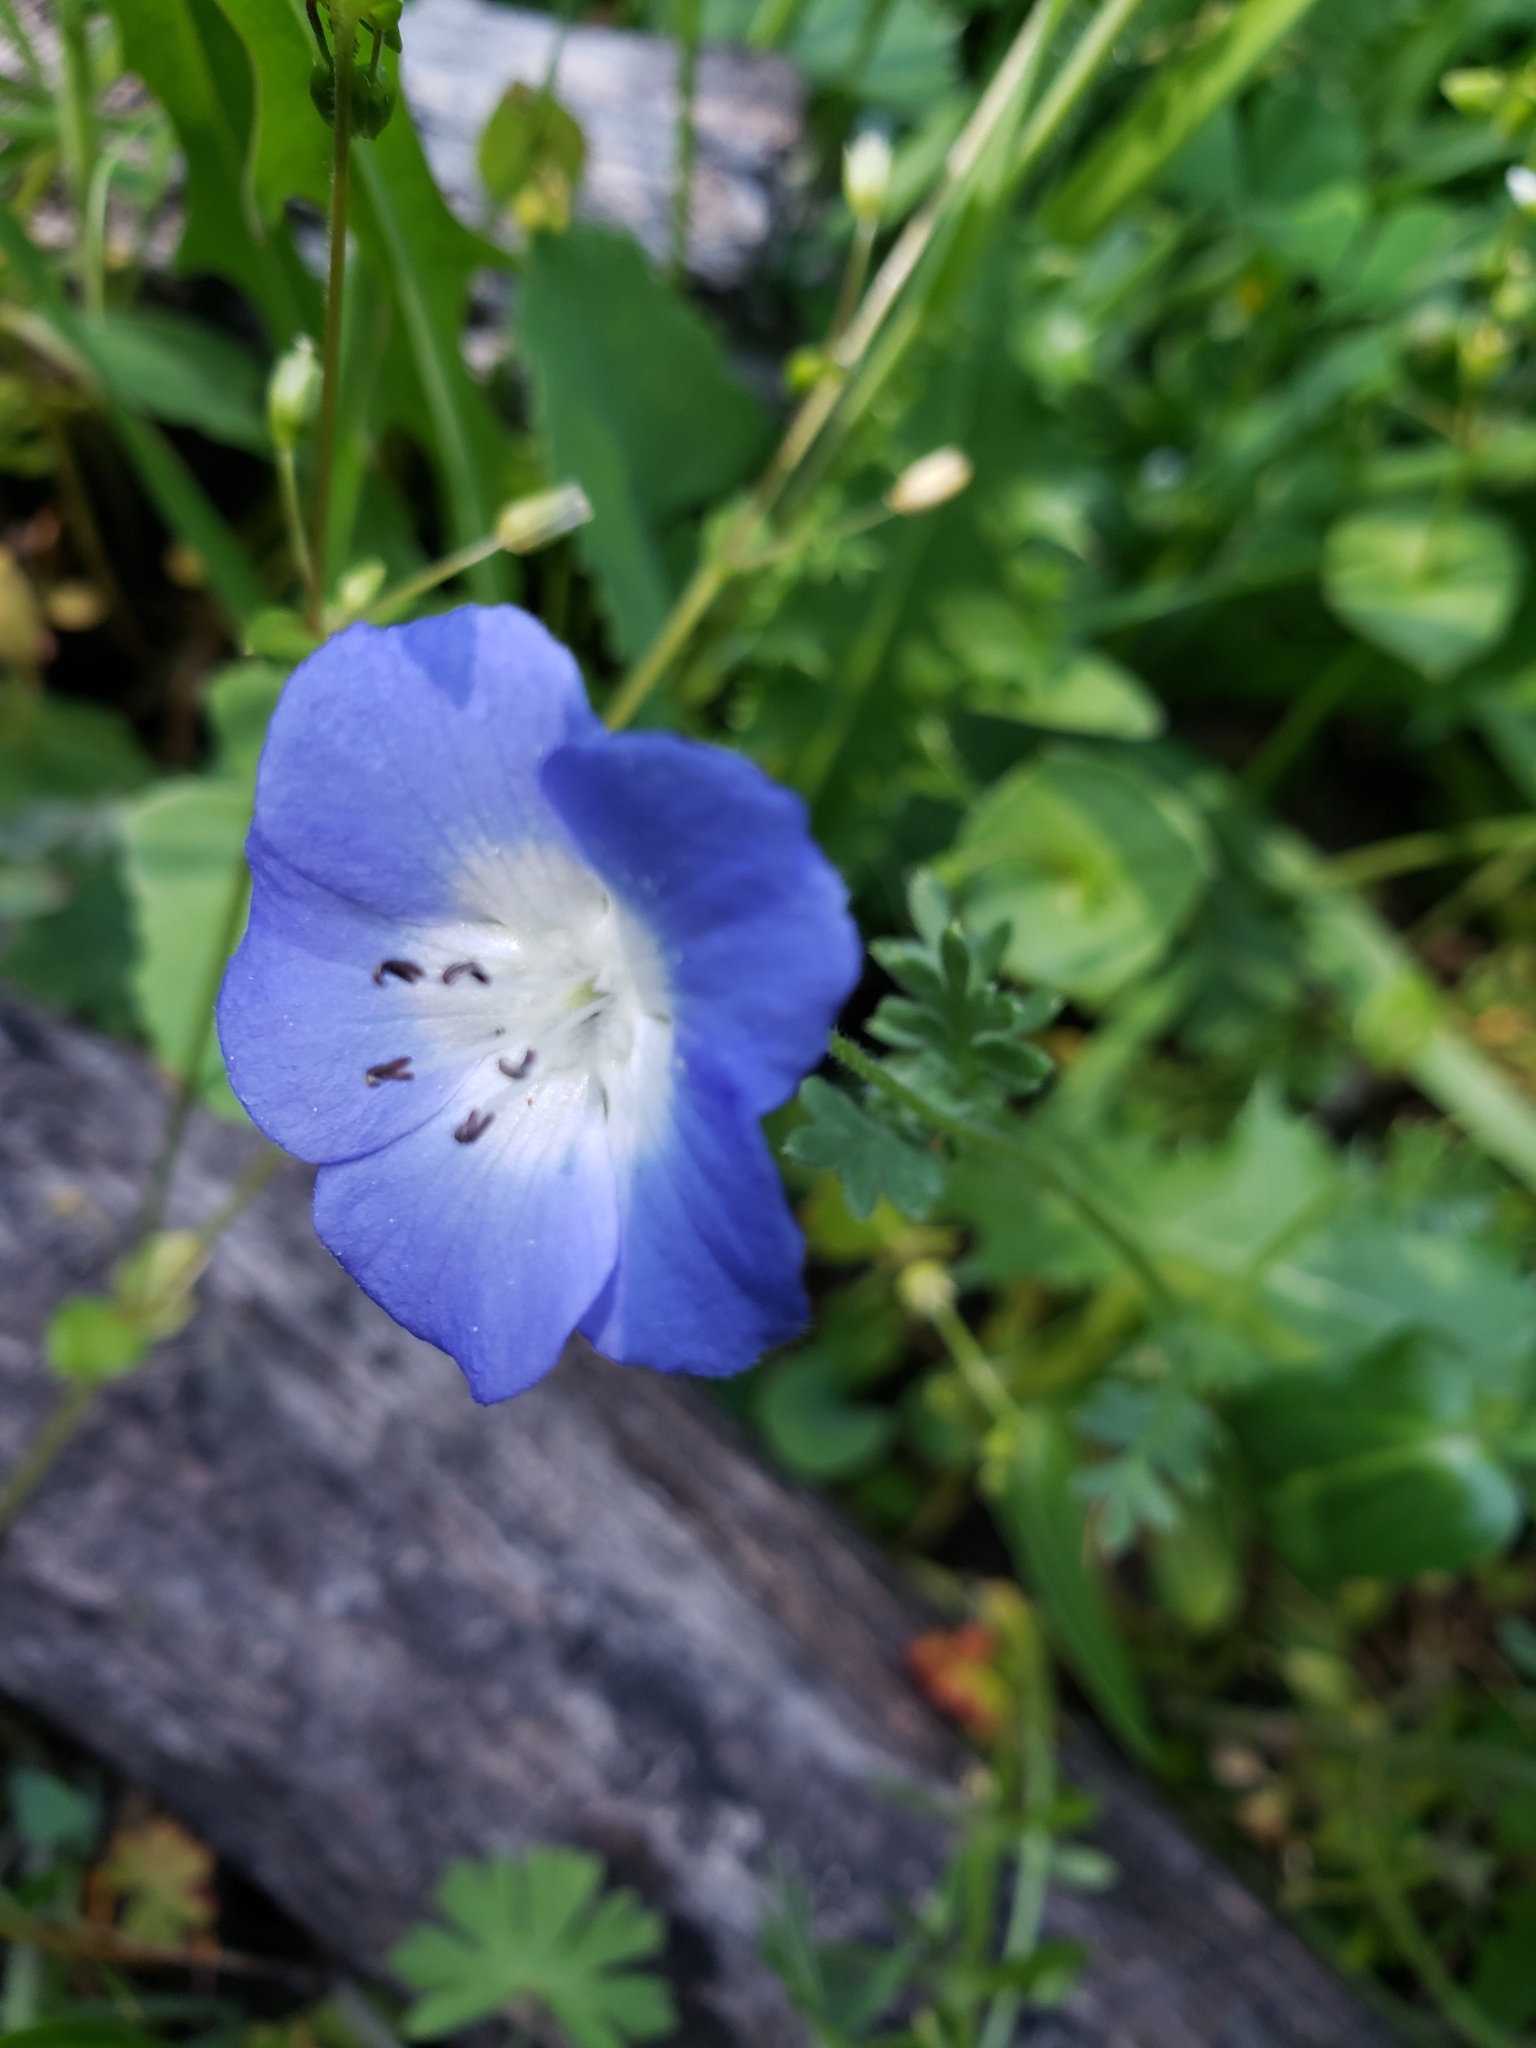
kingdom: Plantae
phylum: Tracheophyta
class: Magnoliopsida
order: Boraginales
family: Hydrophyllaceae
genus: Nemophila
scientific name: Nemophila menziesii
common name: Baby's-blue-eyes
